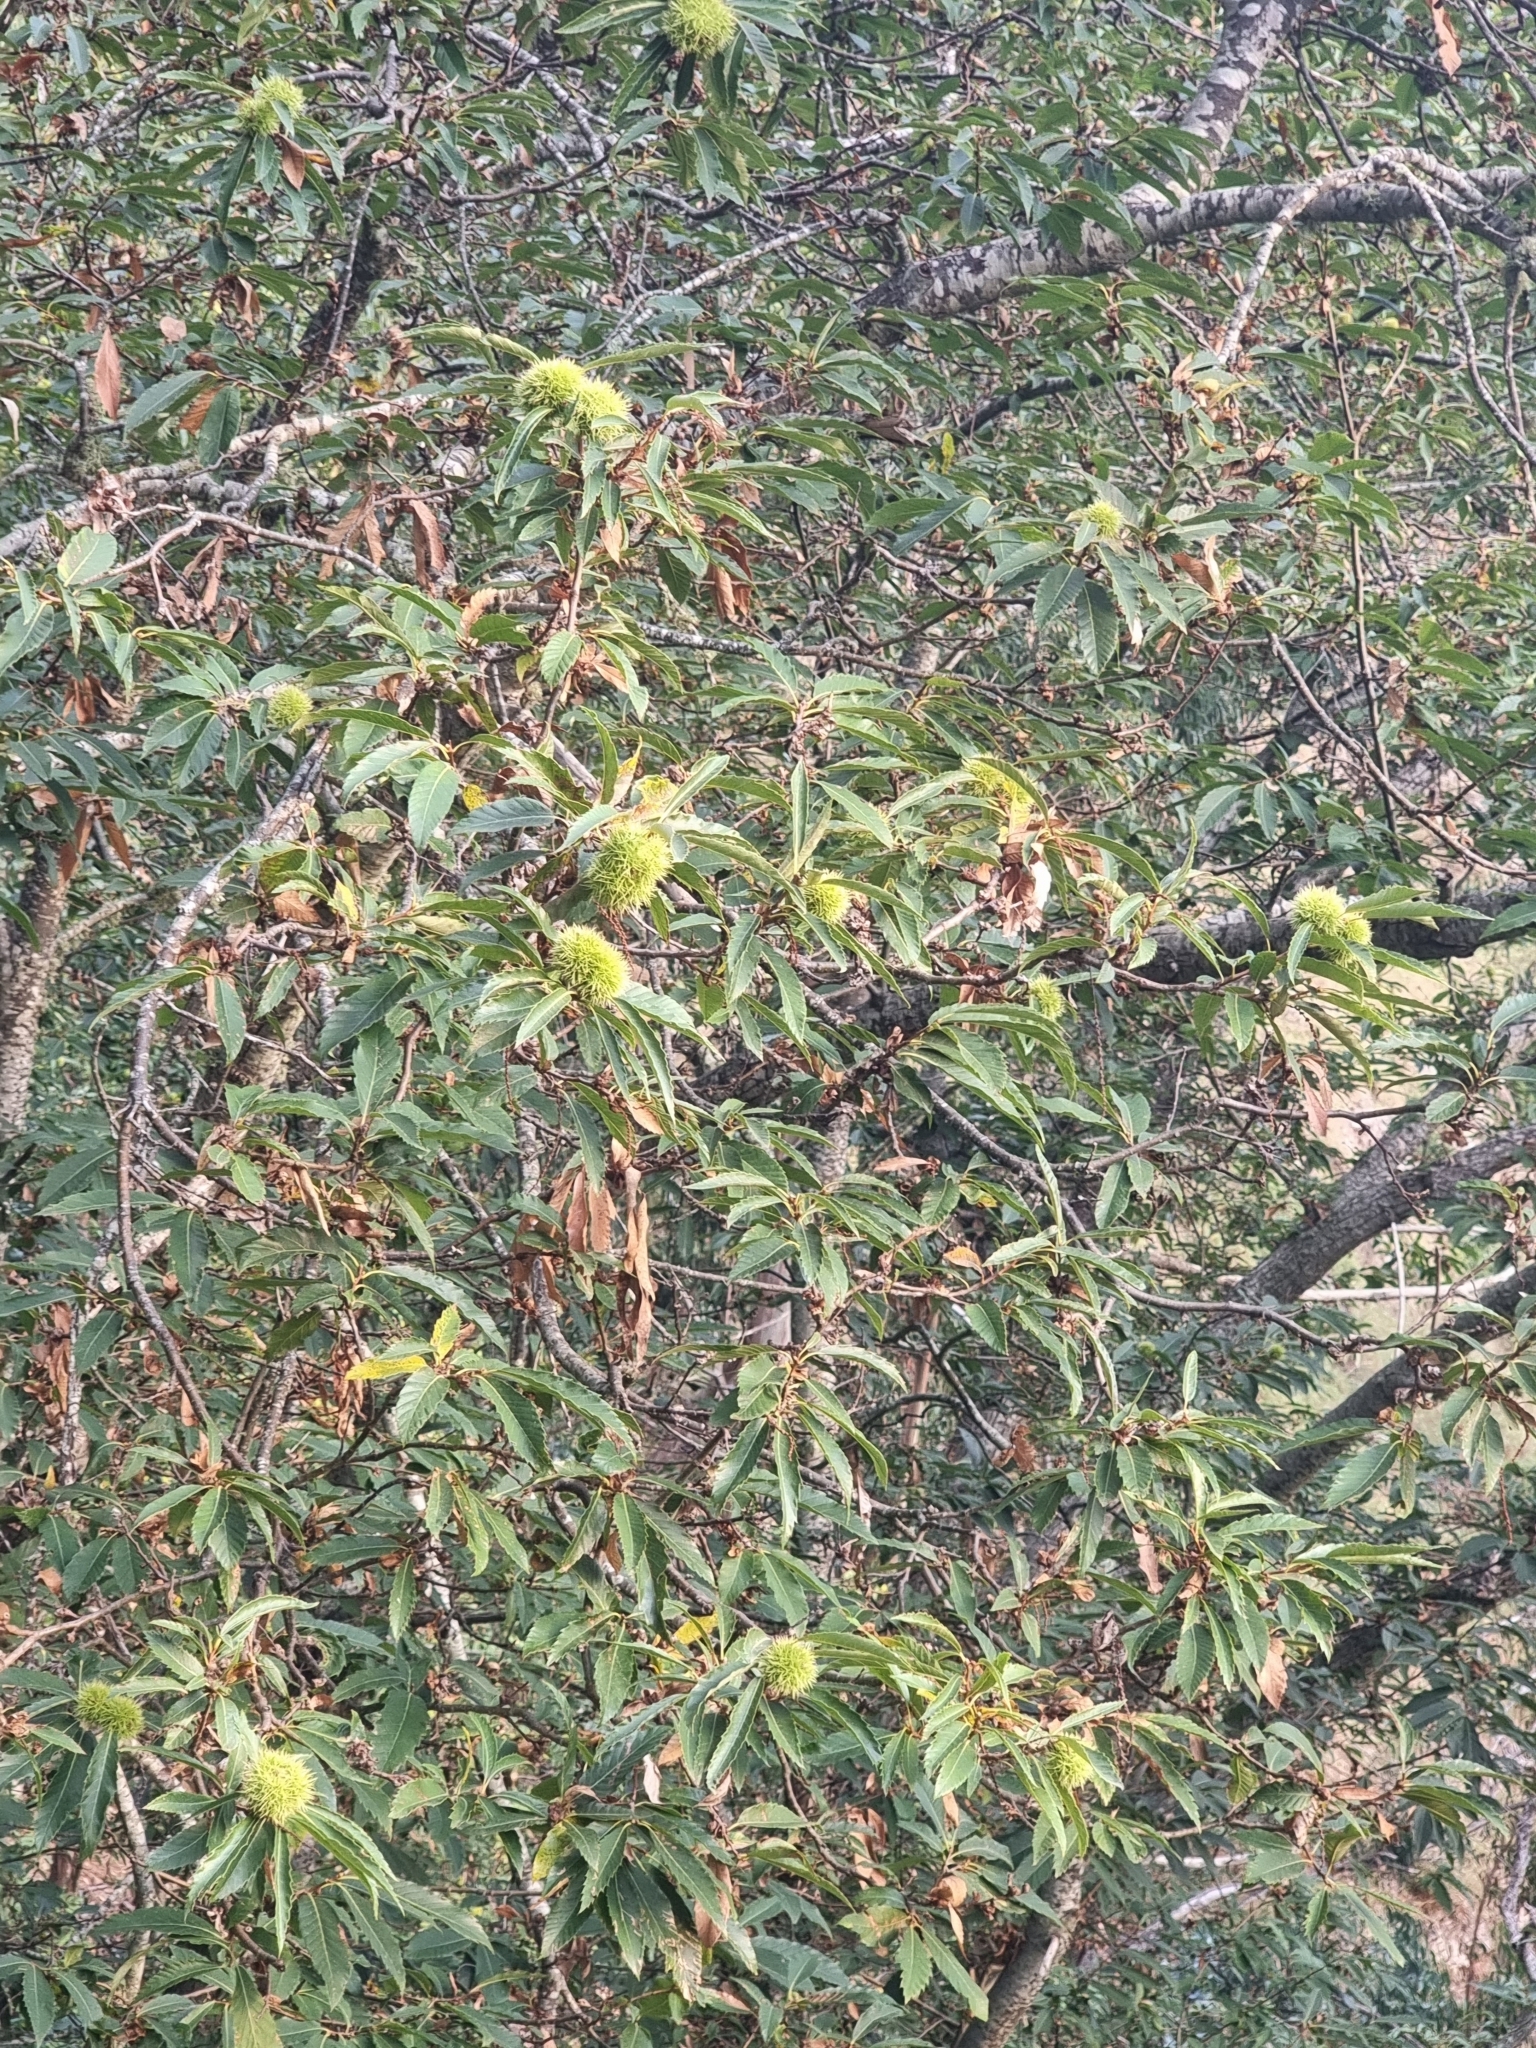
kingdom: Plantae
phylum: Tracheophyta
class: Magnoliopsida
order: Fagales
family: Fagaceae
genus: Castanea
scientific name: Castanea sativa
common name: Sweet chestnut
